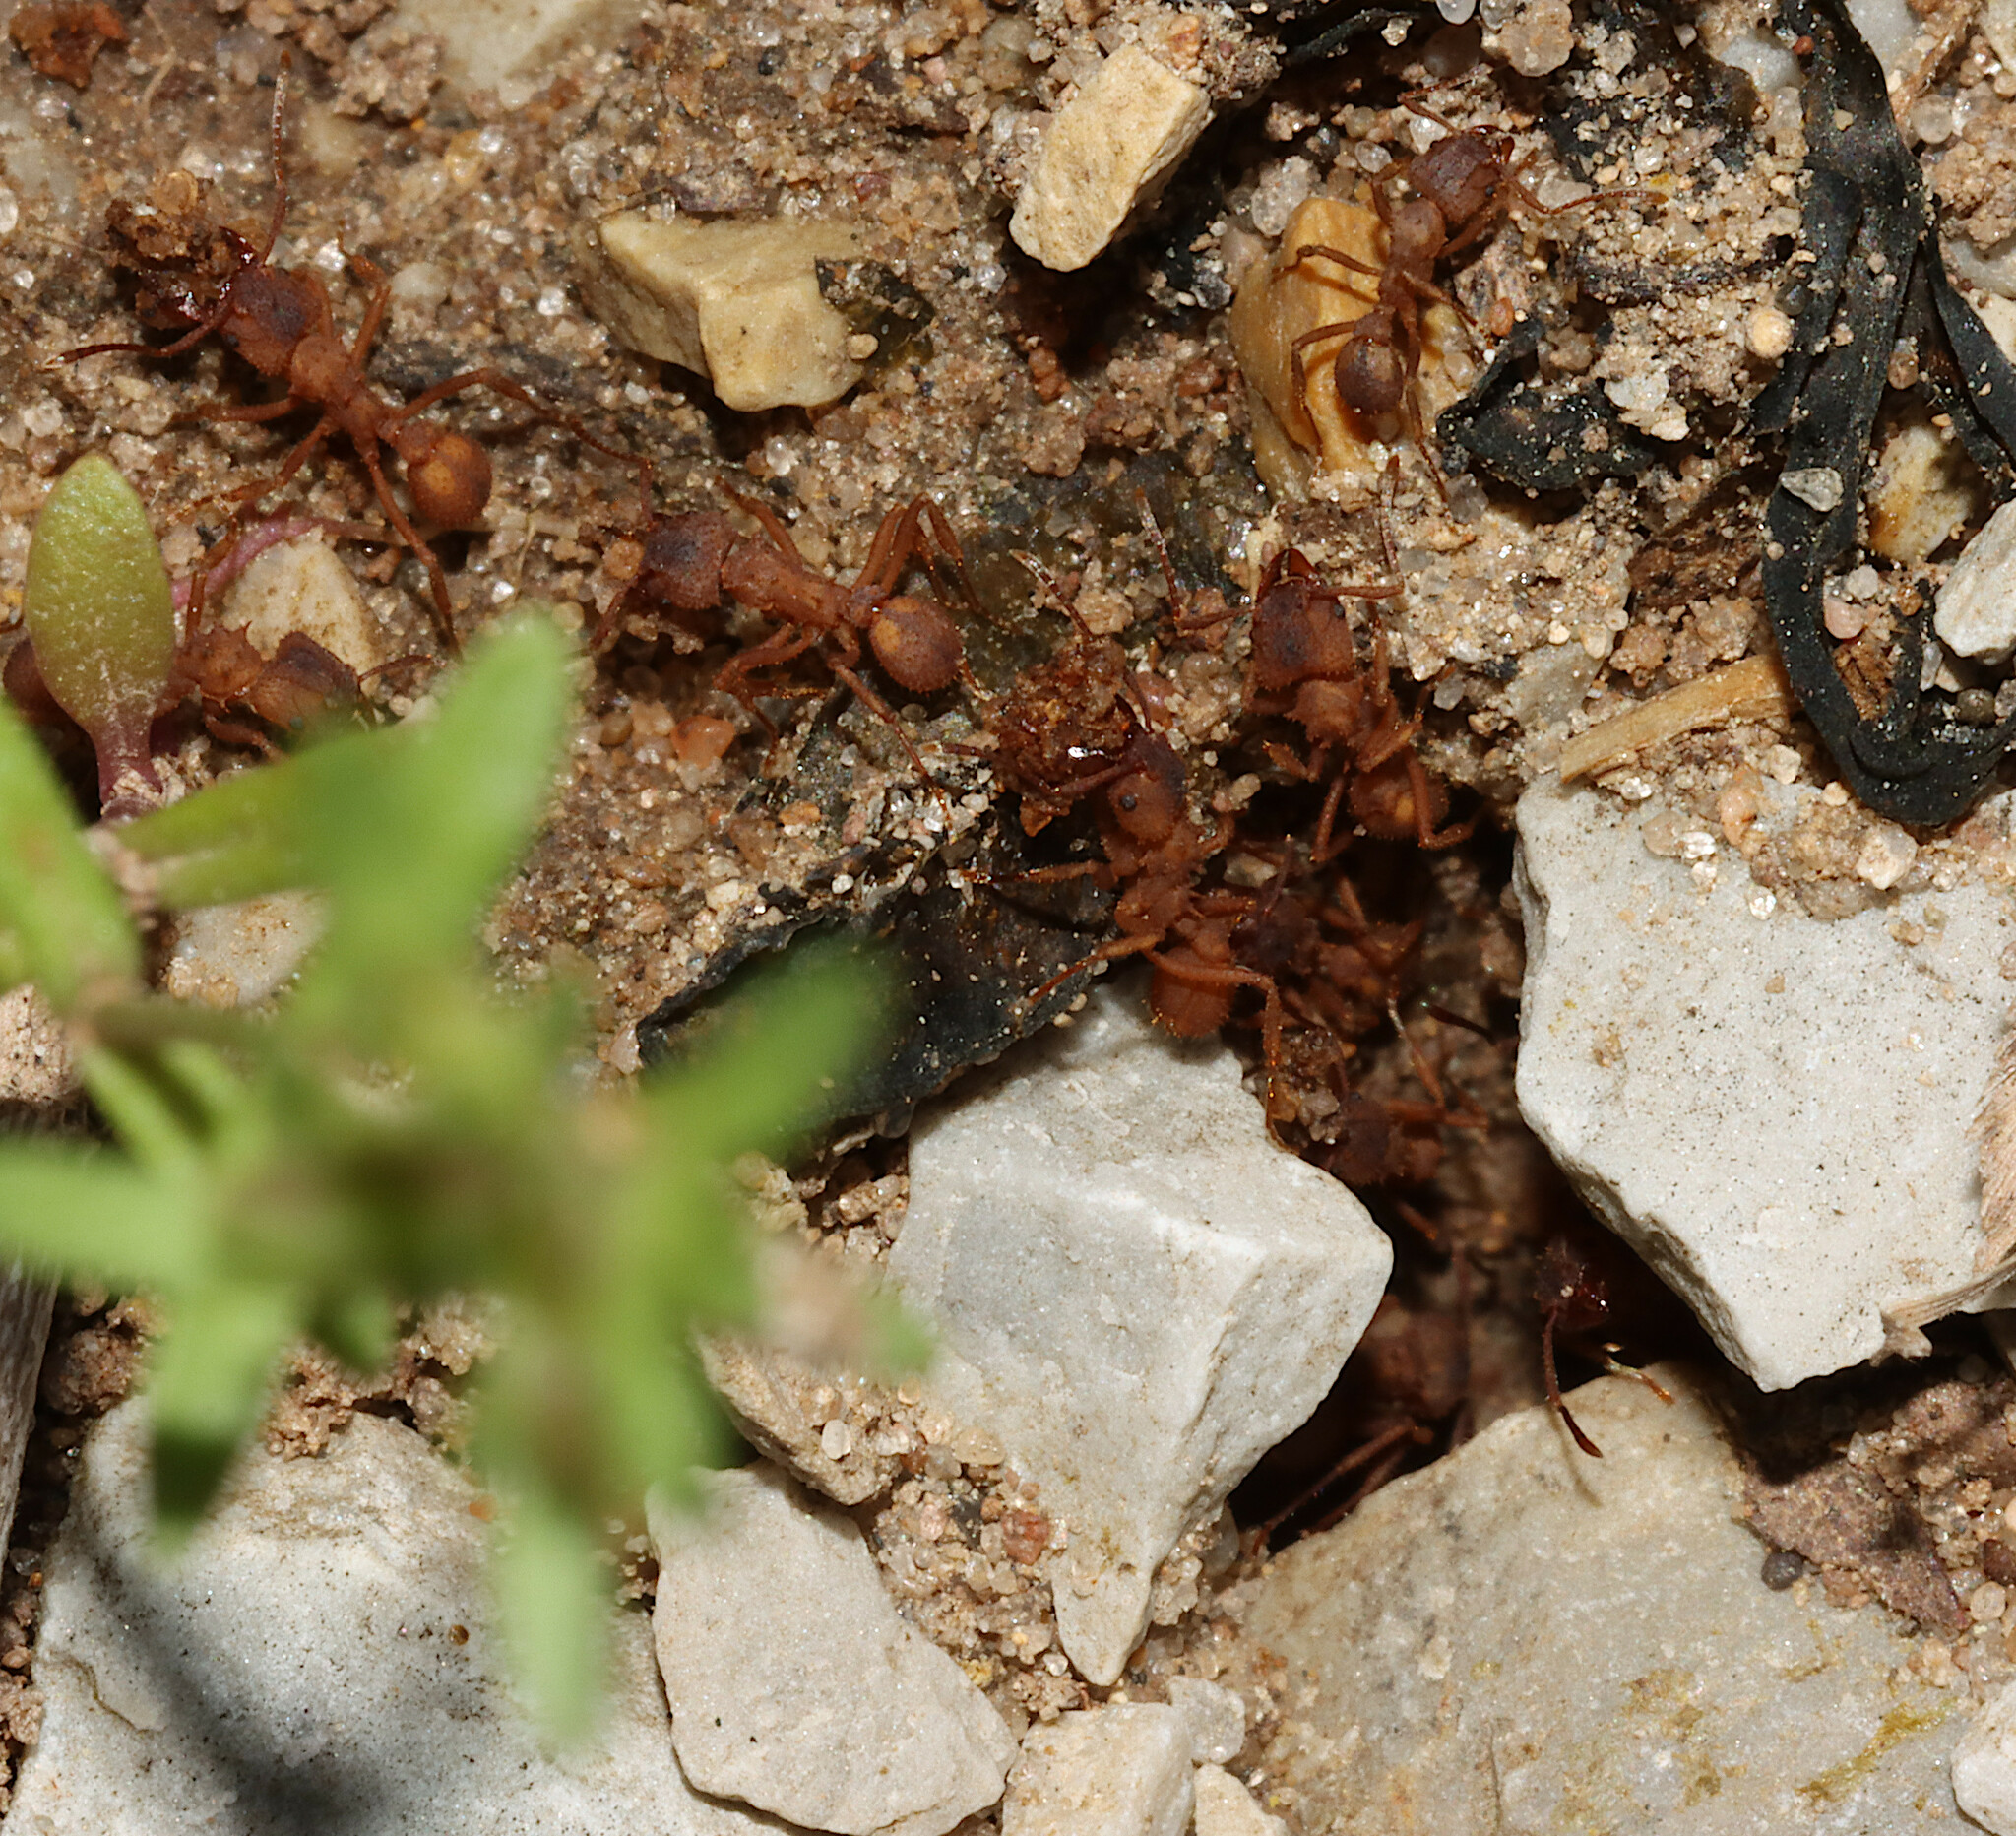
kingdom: Animalia
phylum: Arthropoda
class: Insecta
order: Hymenoptera
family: Formicidae
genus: Trachymyrmex
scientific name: Trachymyrmex septentrionalis
